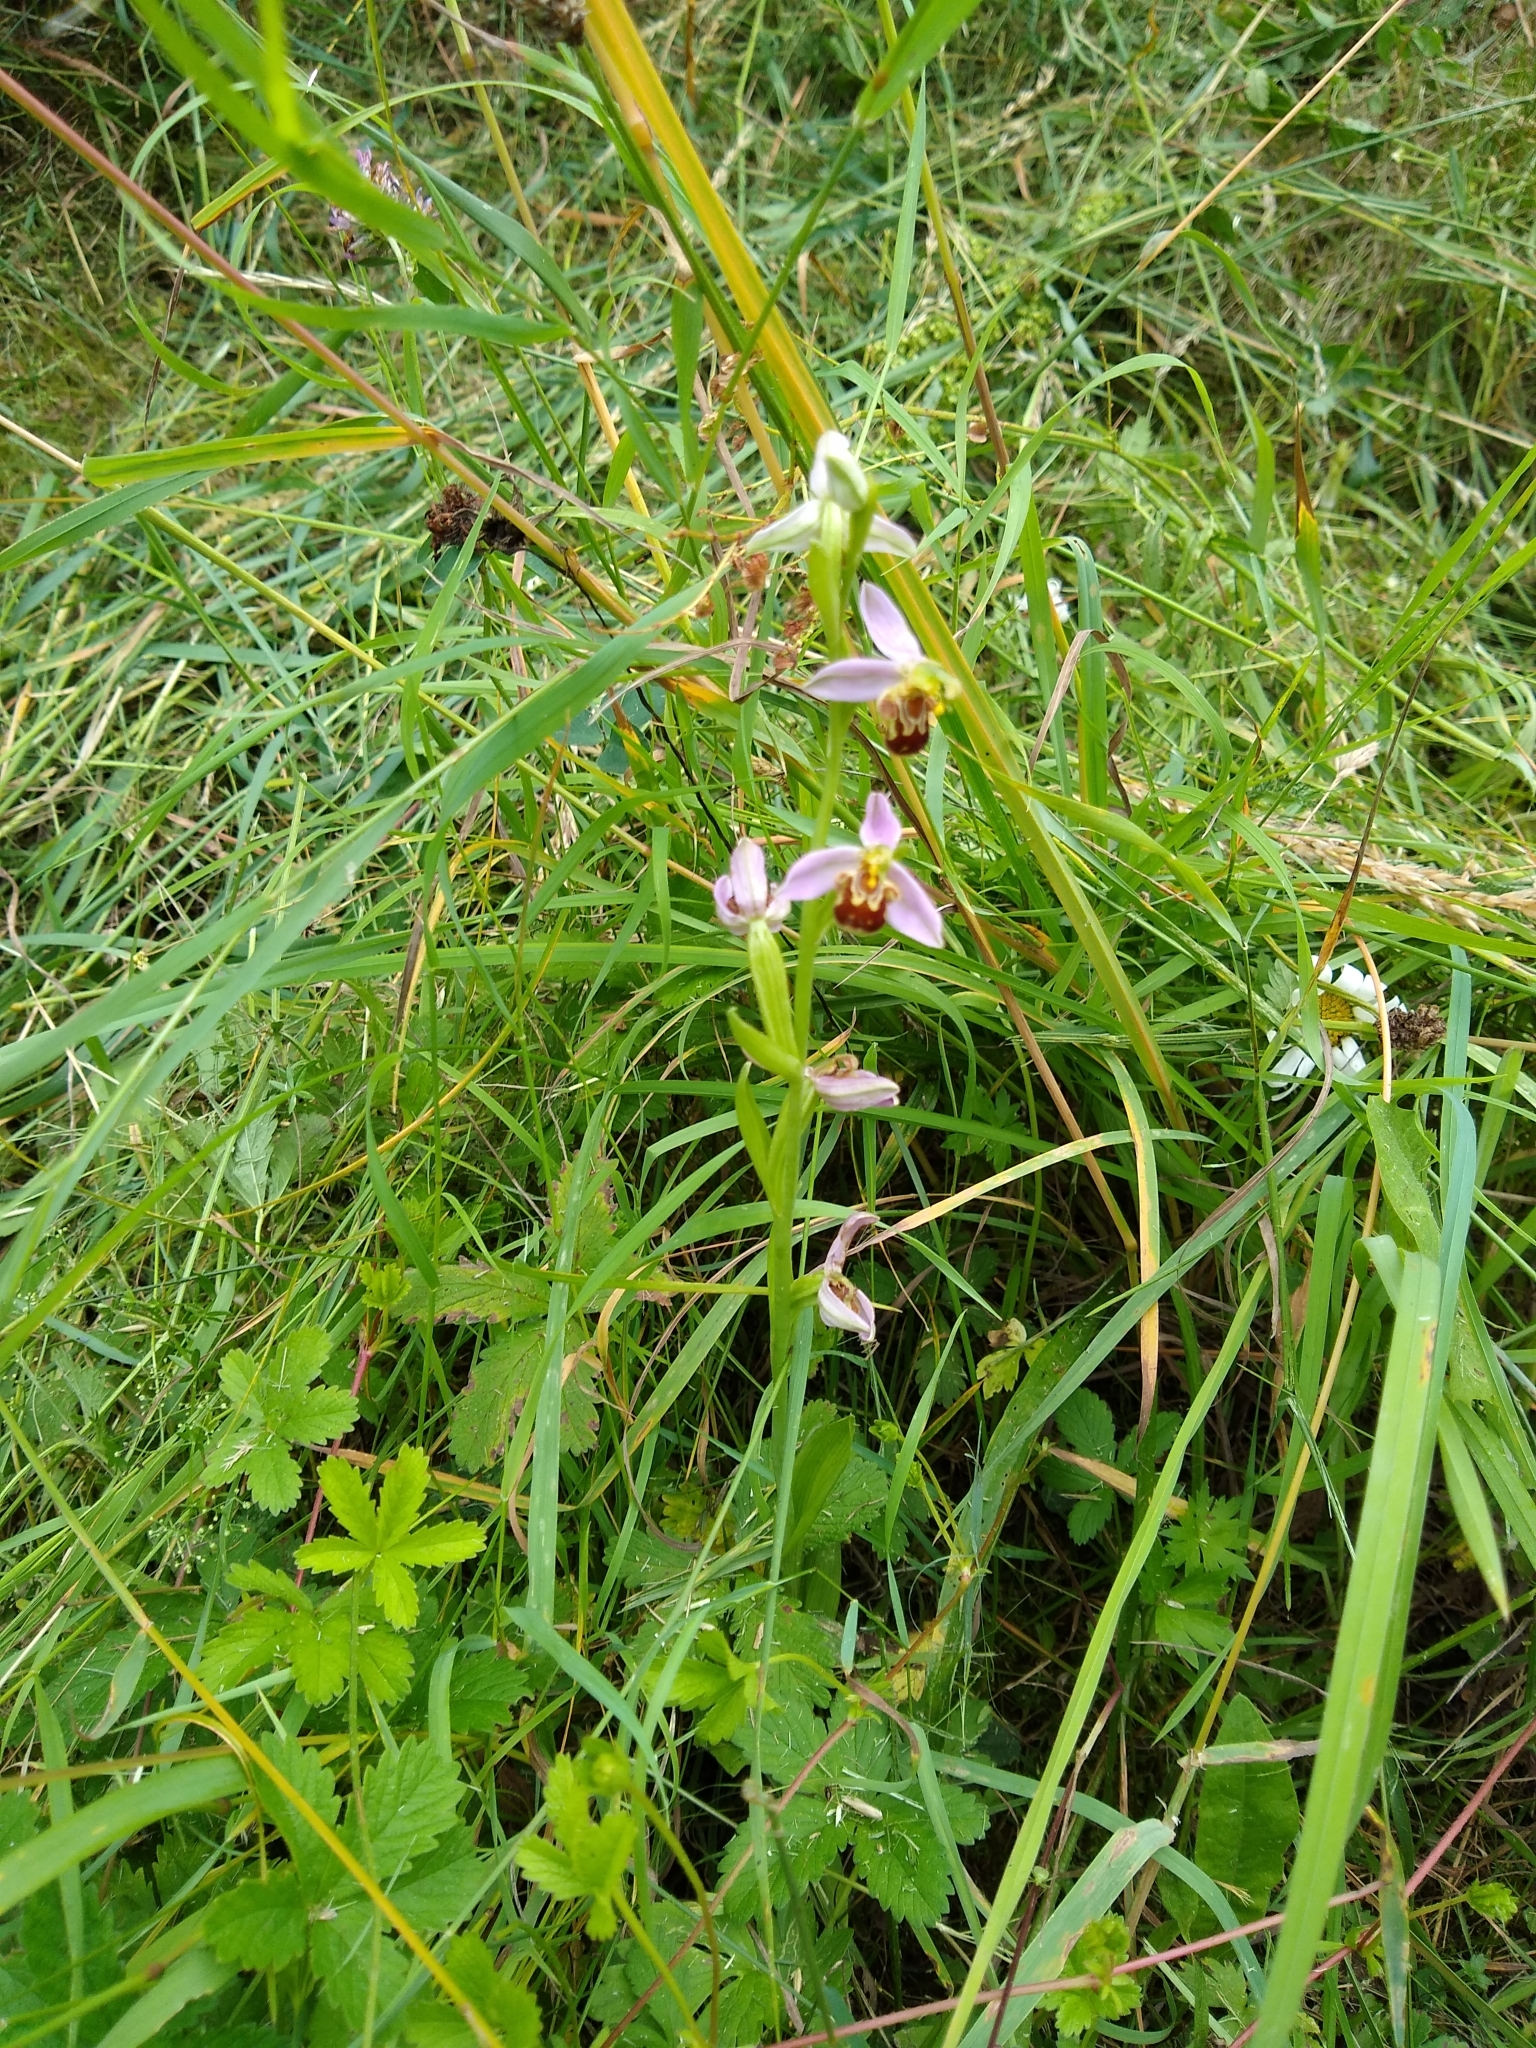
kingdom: Plantae
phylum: Tracheophyta
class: Liliopsida
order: Asparagales
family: Orchidaceae
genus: Ophrys
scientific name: Ophrys apifera
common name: Bee orchid
